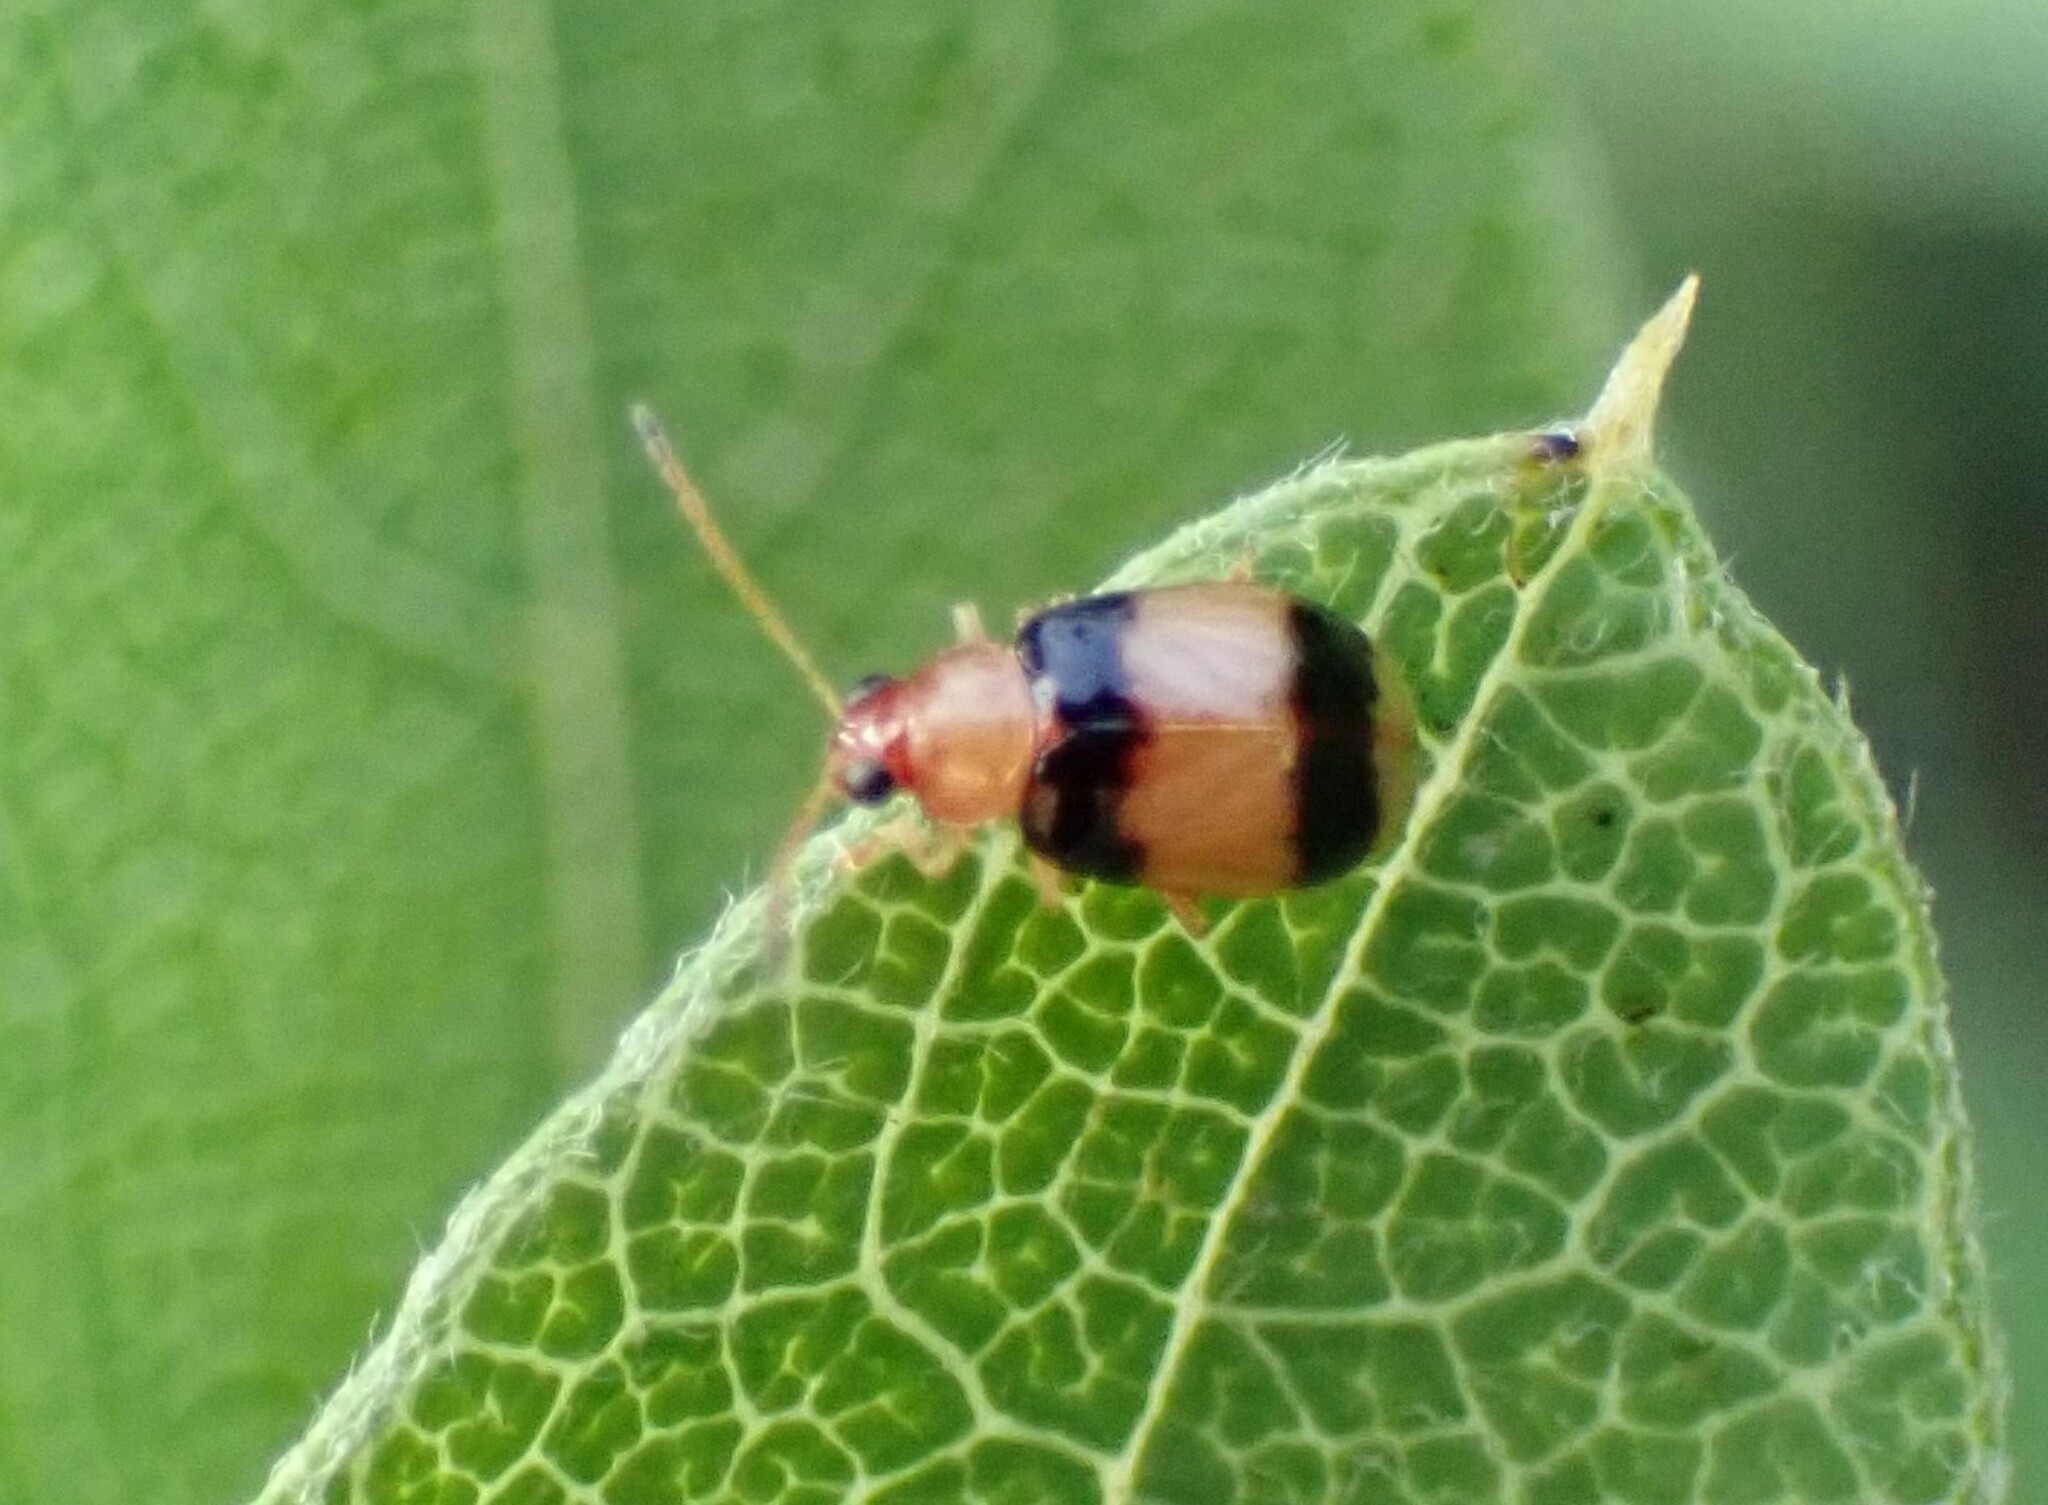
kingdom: Animalia
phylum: Arthropoda
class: Insecta
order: Coleoptera
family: Chrysomelidae
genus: Monolepta
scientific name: Monolepta
